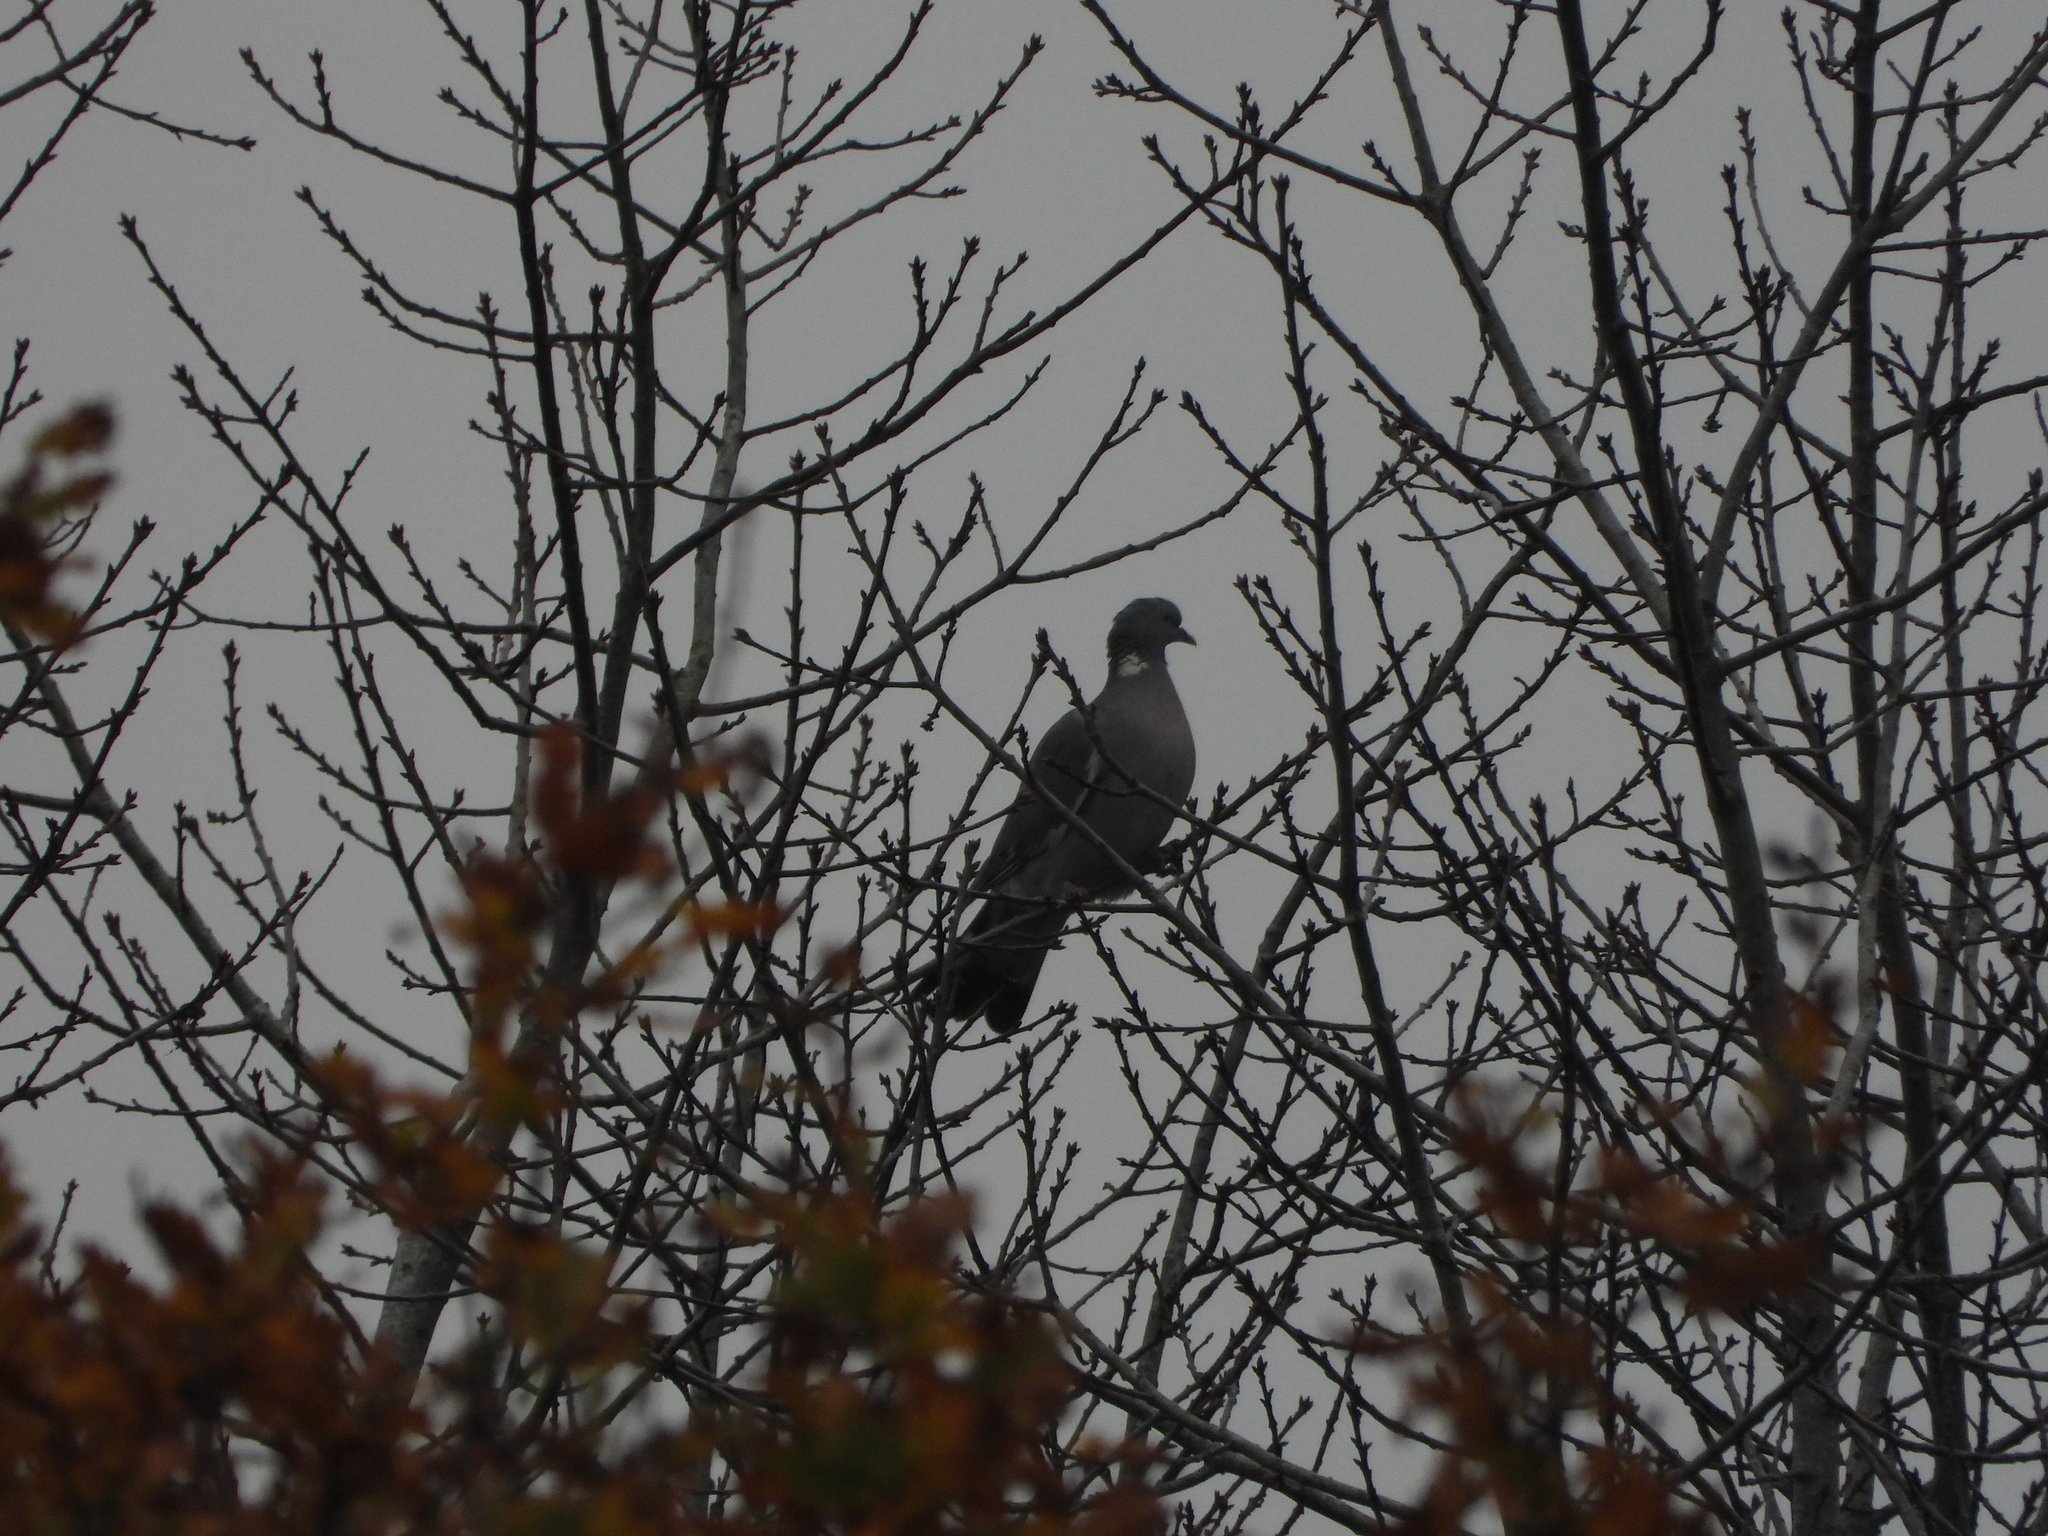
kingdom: Animalia
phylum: Chordata
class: Aves
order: Columbiformes
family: Columbidae
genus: Columba
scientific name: Columba palumbus
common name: Common wood pigeon
